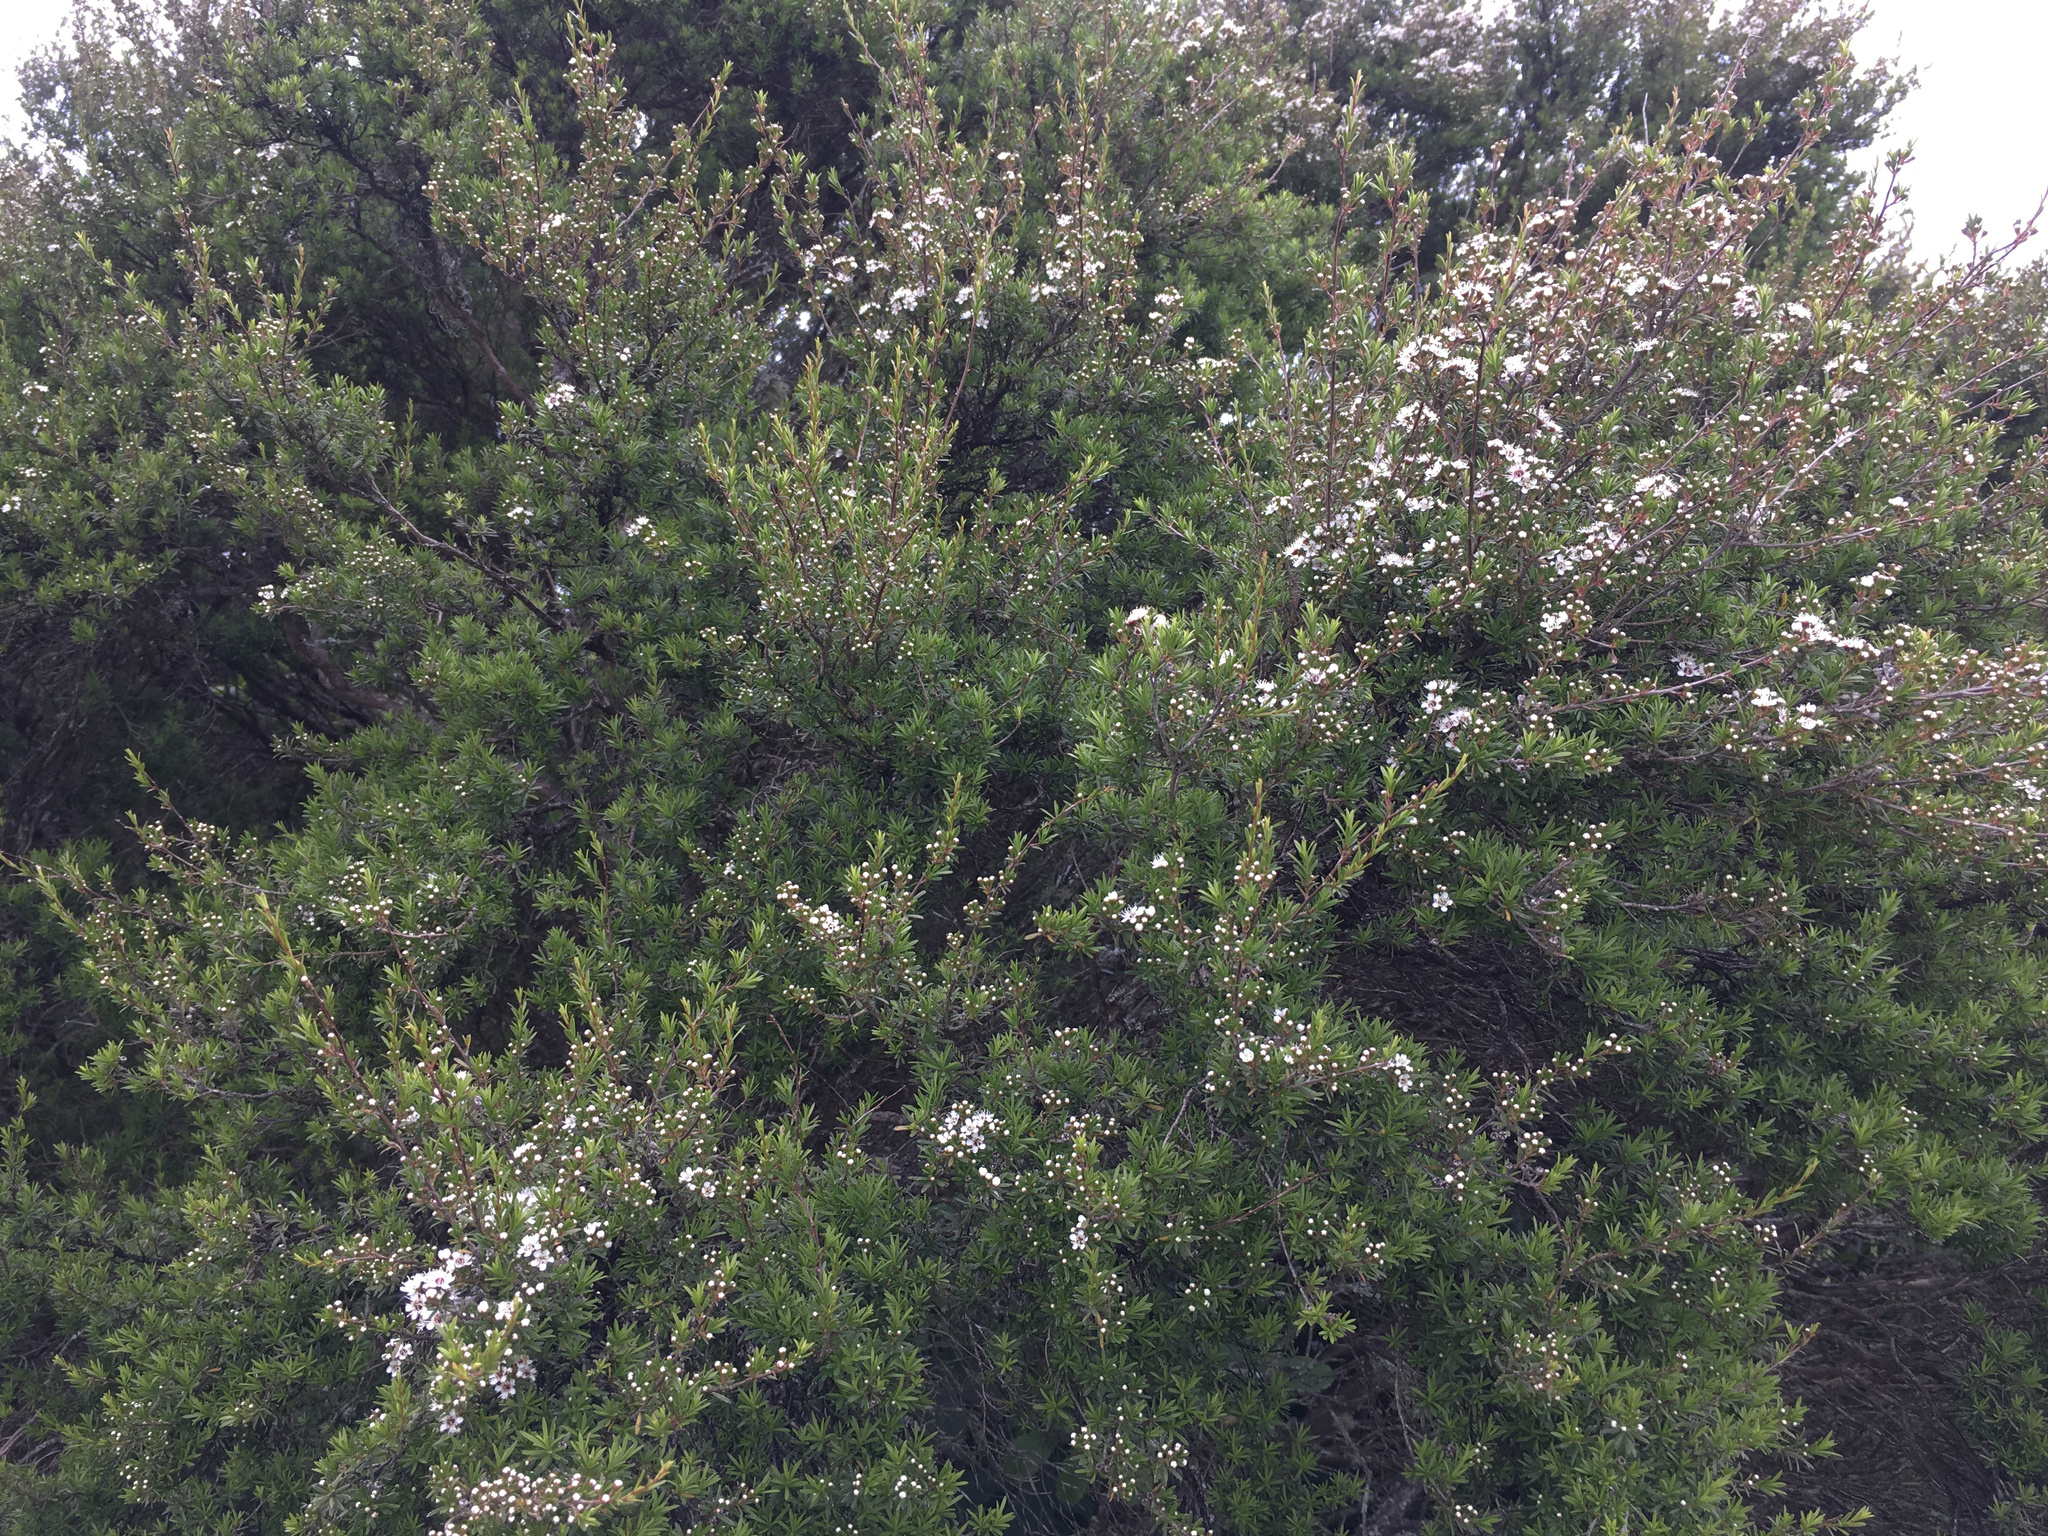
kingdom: Plantae
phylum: Tracheophyta
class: Magnoliopsida
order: Myrtales
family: Myrtaceae
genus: Kunzea
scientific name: Kunzea robusta
